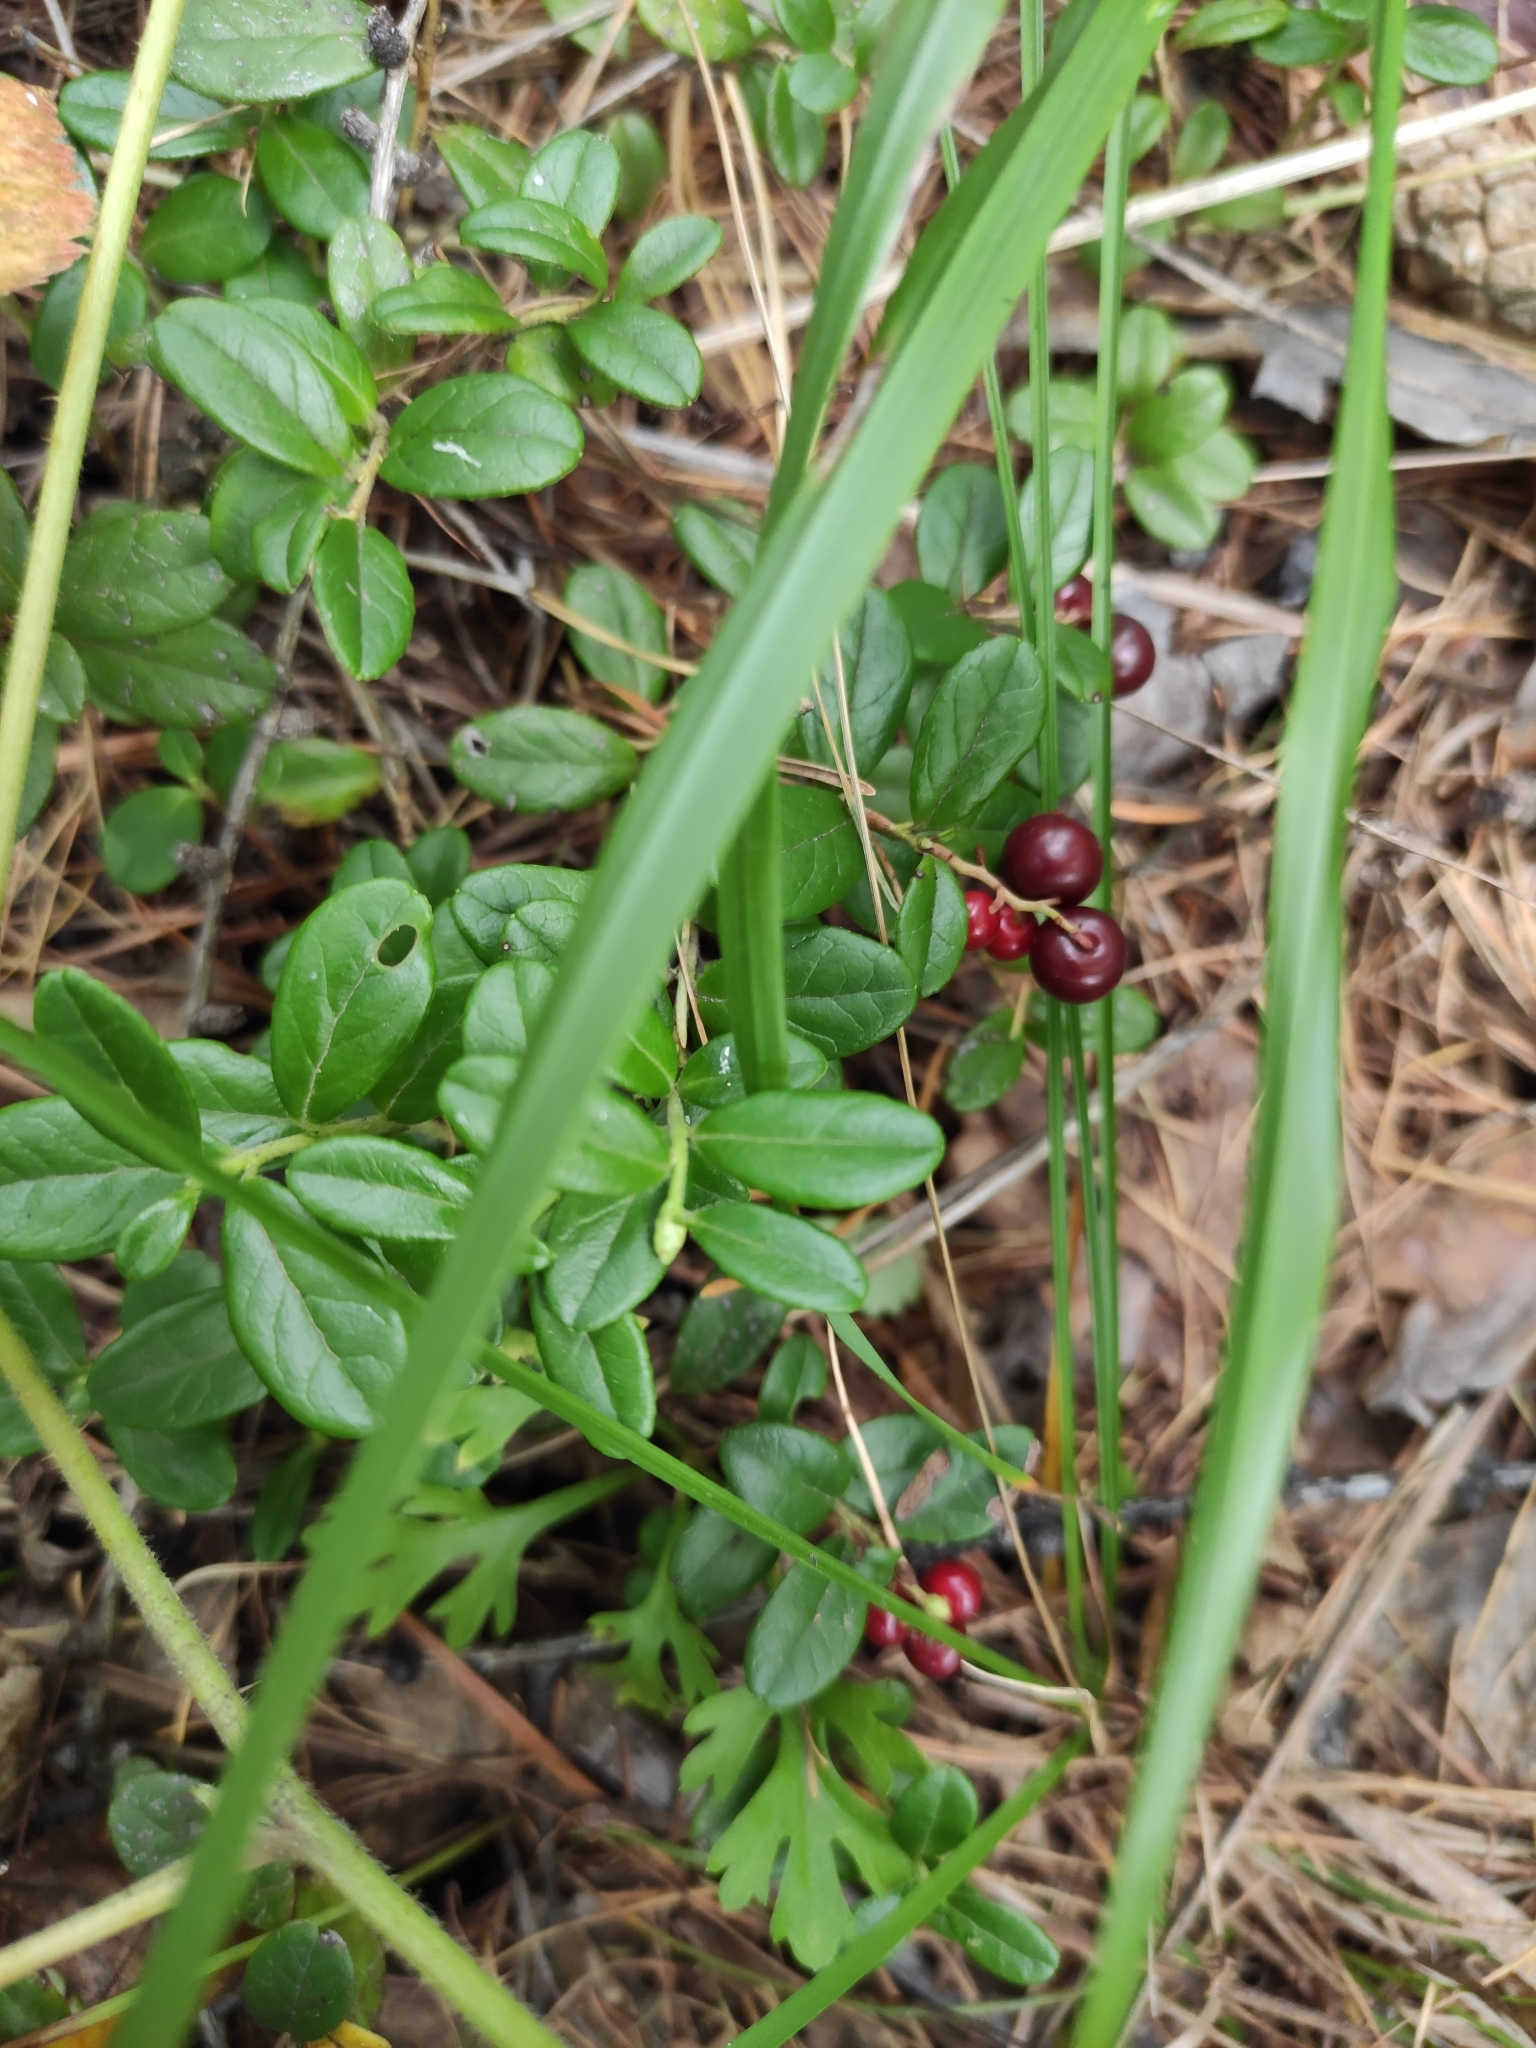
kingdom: Plantae
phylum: Tracheophyta
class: Magnoliopsida
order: Ericales
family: Ericaceae
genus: Vaccinium
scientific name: Vaccinium vitis-idaea
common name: Cowberry
